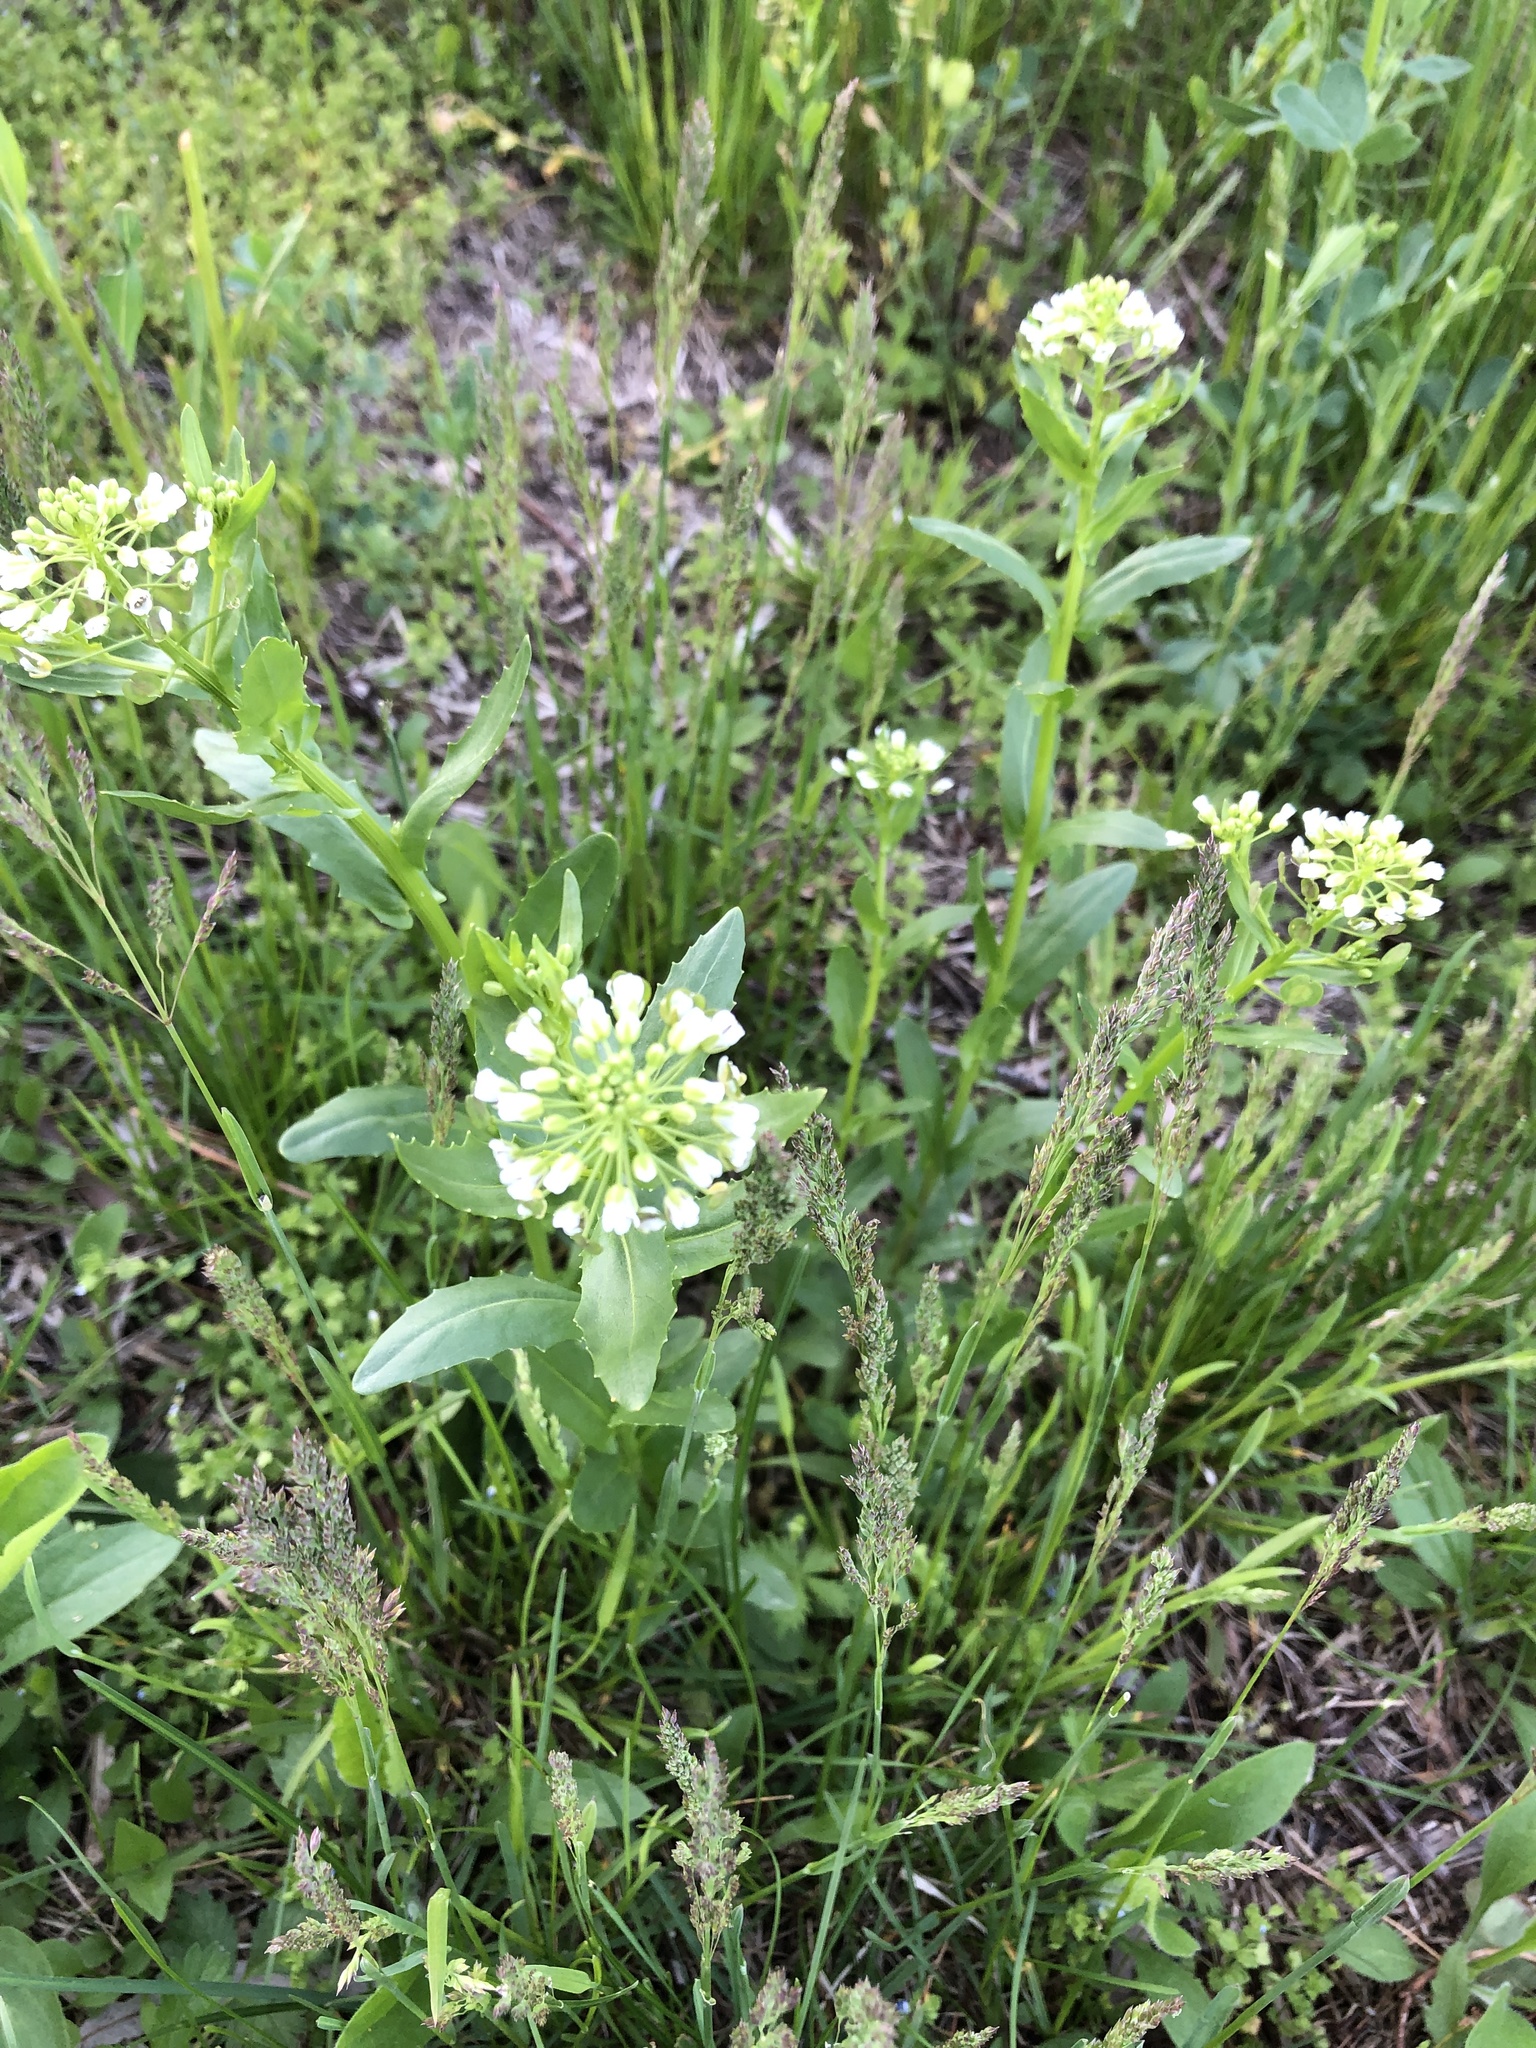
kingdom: Plantae
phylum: Tracheophyta
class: Magnoliopsida
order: Brassicales
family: Brassicaceae
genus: Thlaspi
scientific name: Thlaspi arvense
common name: Field pennycress
